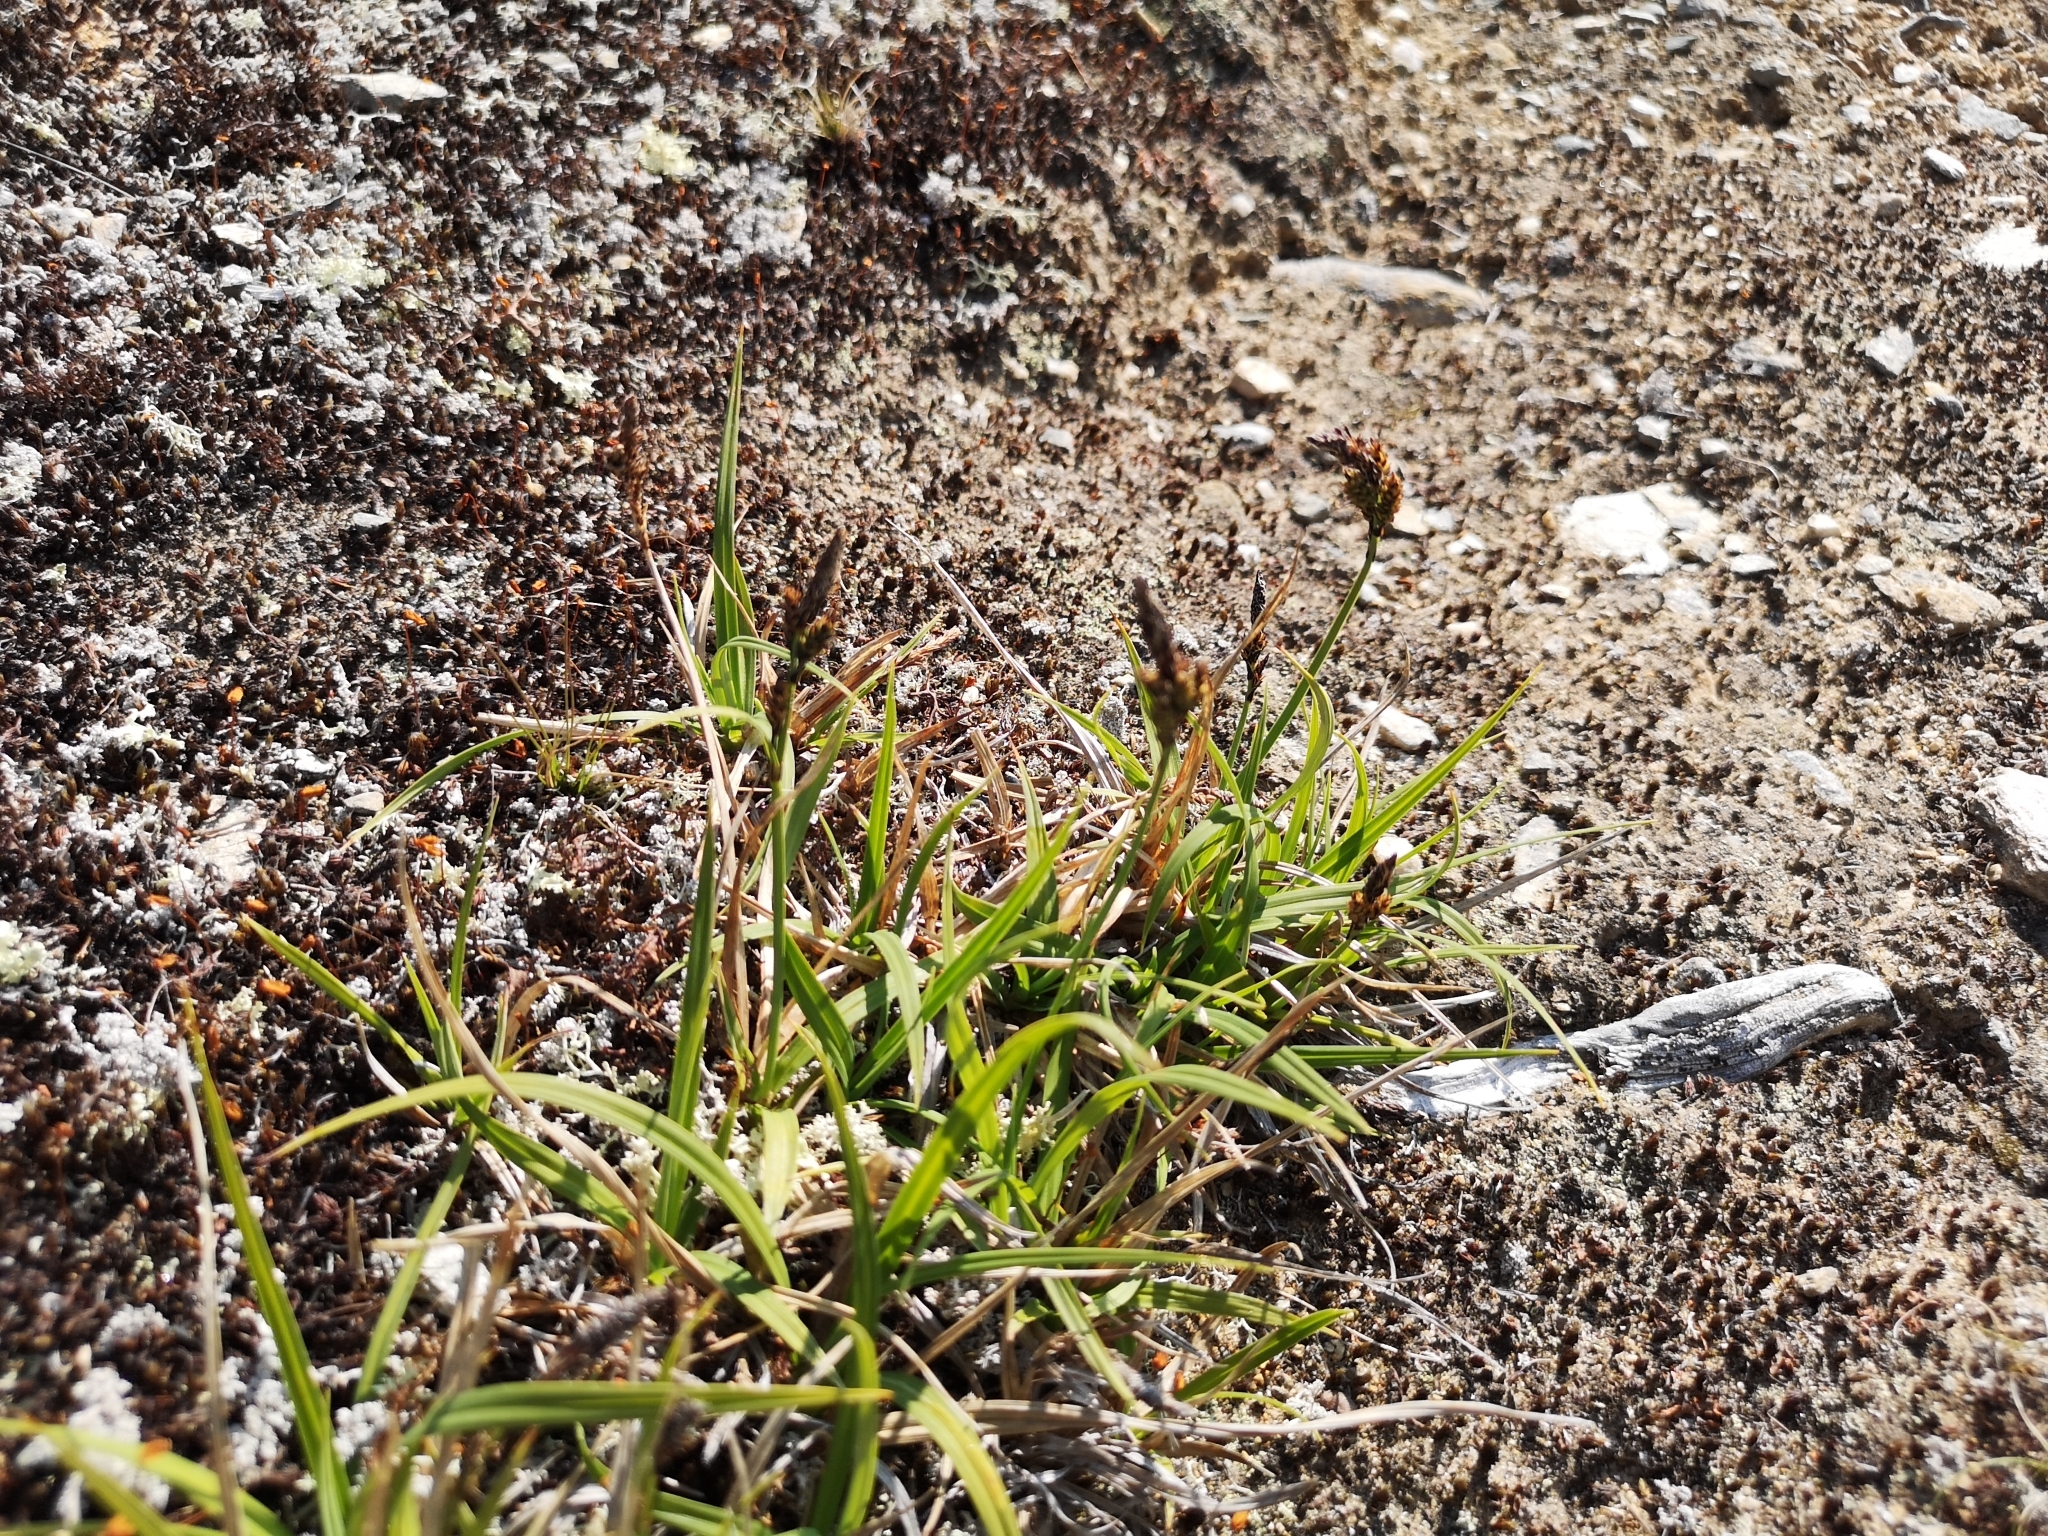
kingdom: Plantae
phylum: Tracheophyta
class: Liliopsida
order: Poales
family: Cyperaceae
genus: Carex
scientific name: Carex bigelowii
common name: Stiff sedge
